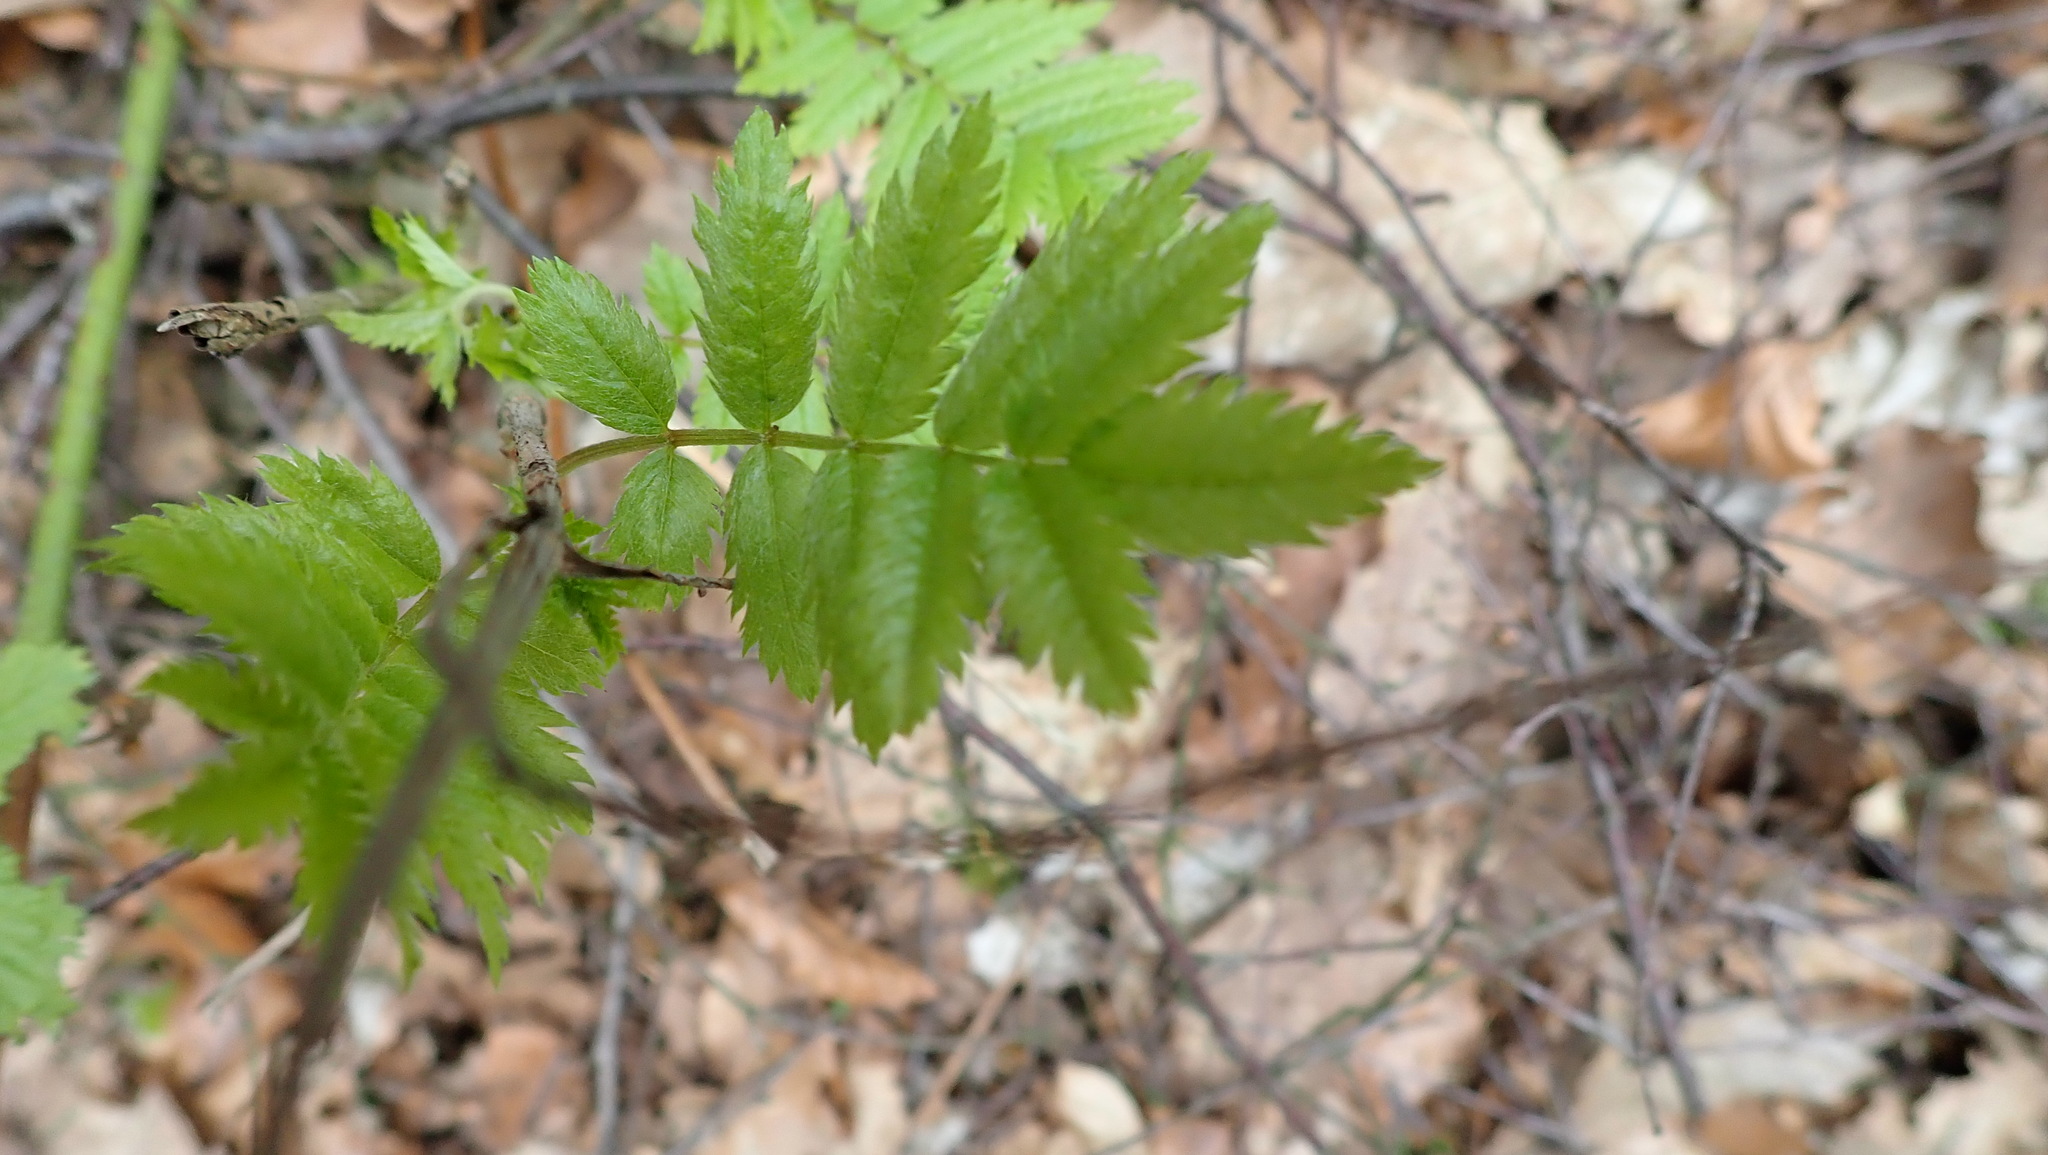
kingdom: Plantae
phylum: Tracheophyta
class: Magnoliopsida
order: Rosales
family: Rosaceae
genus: Sorbus
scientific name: Sorbus aucuparia
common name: Rowan
